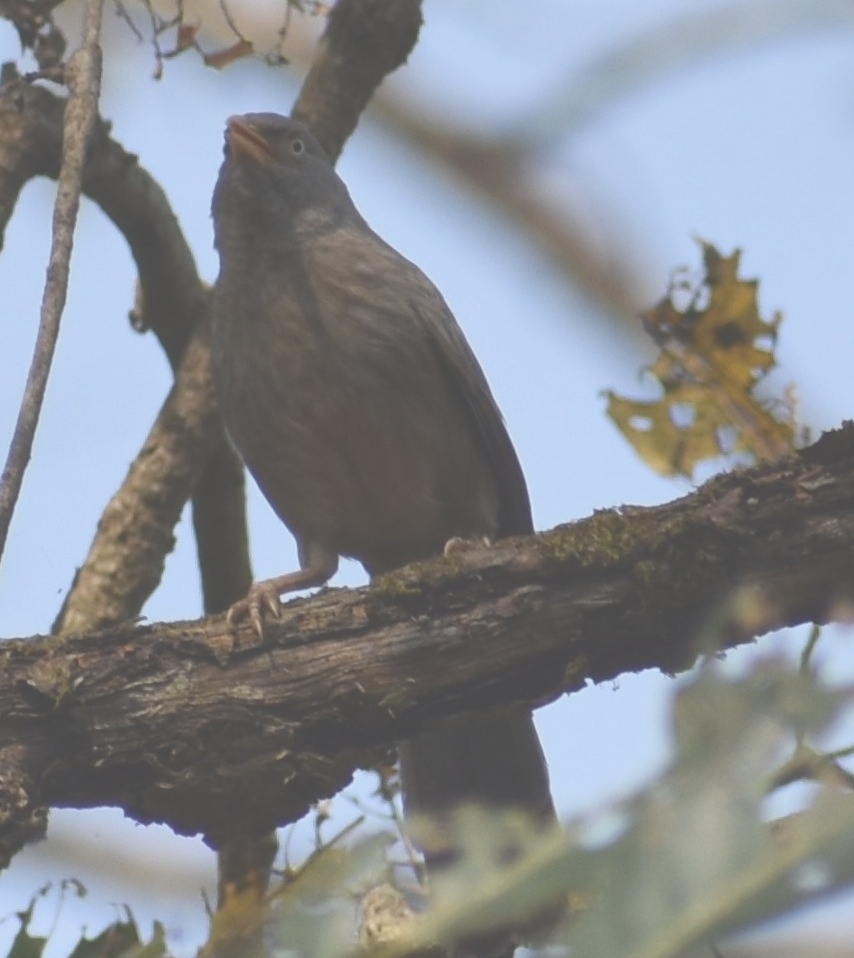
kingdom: Animalia
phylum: Chordata
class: Aves
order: Passeriformes
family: Leiothrichidae
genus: Turdoides
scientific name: Turdoides striata
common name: Jungle babbler
